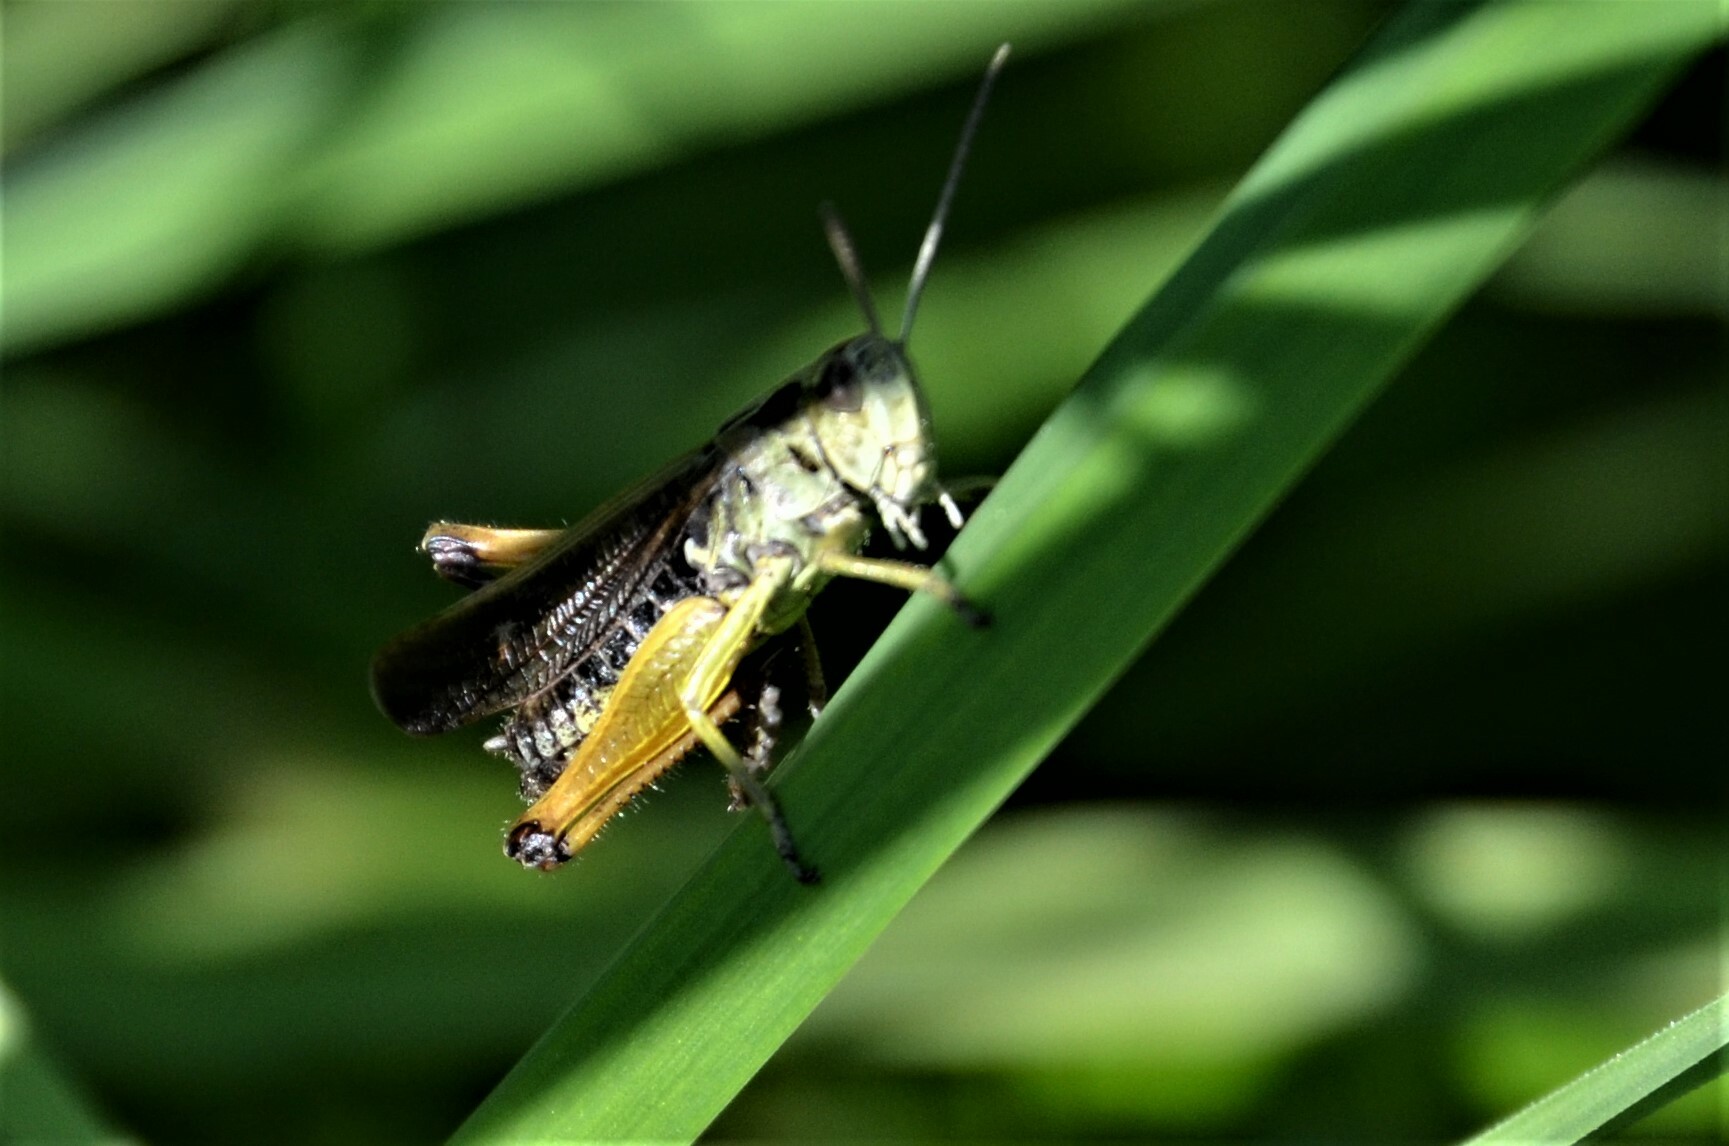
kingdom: Animalia
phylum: Arthropoda
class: Insecta
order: Orthoptera
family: Acrididae
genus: Omocestus
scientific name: Omocestus viridulus
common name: Common green grasshopper
